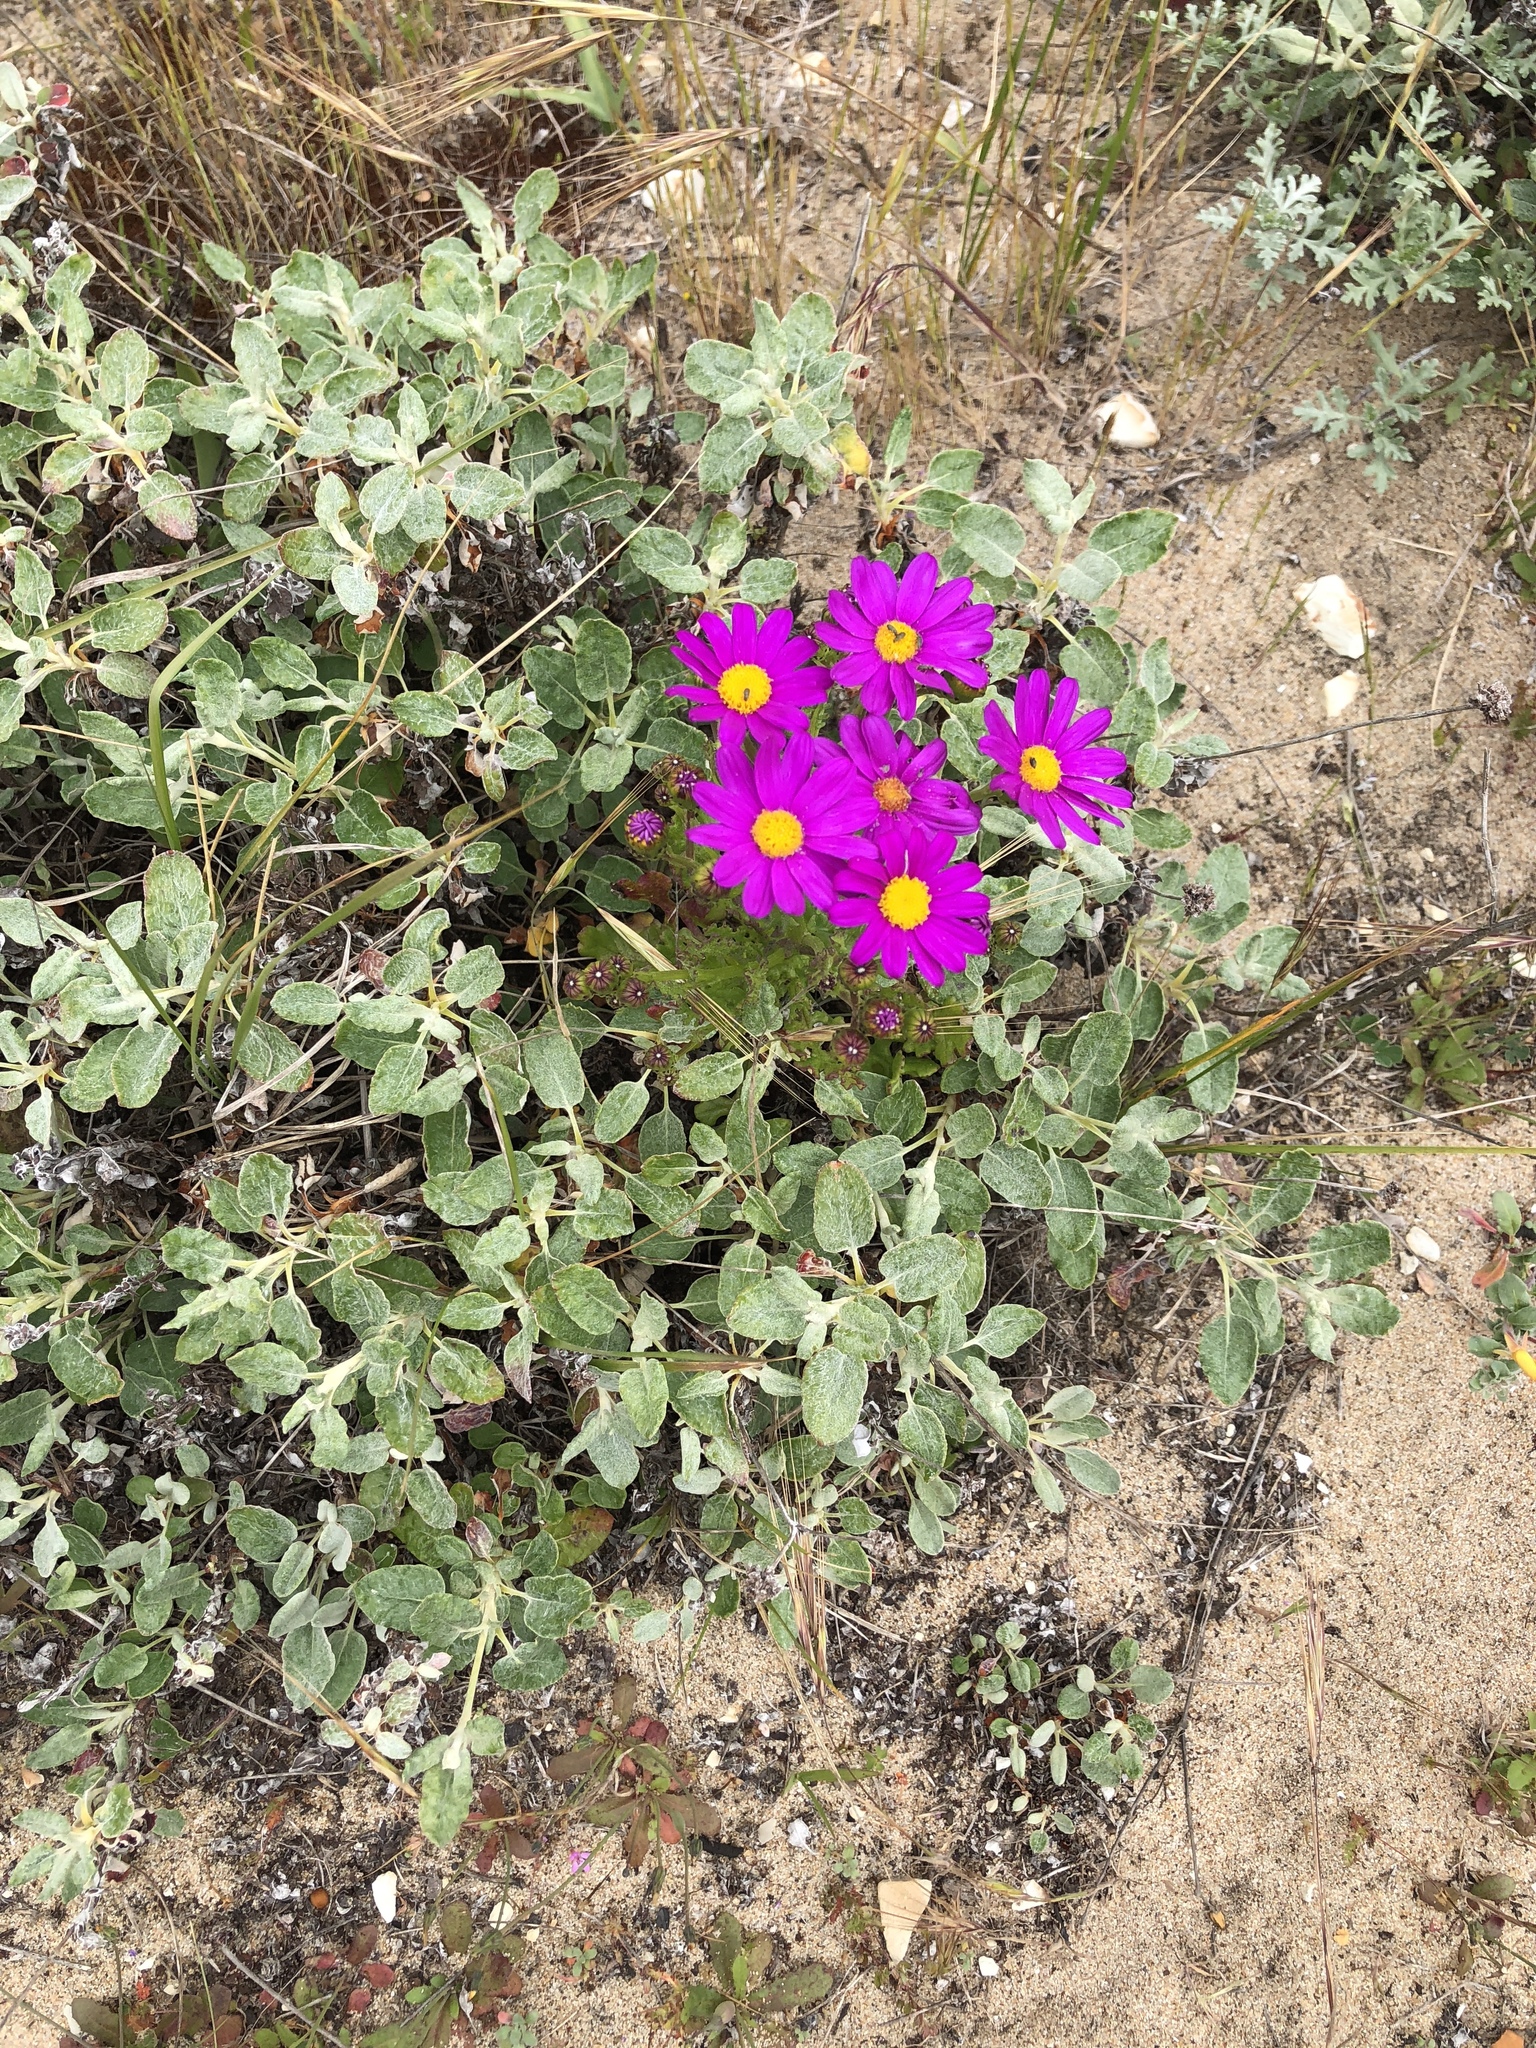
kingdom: Plantae
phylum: Tracheophyta
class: Magnoliopsida
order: Asterales
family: Asteraceae
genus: Senecio
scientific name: Senecio elegans
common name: Purple groundsel
